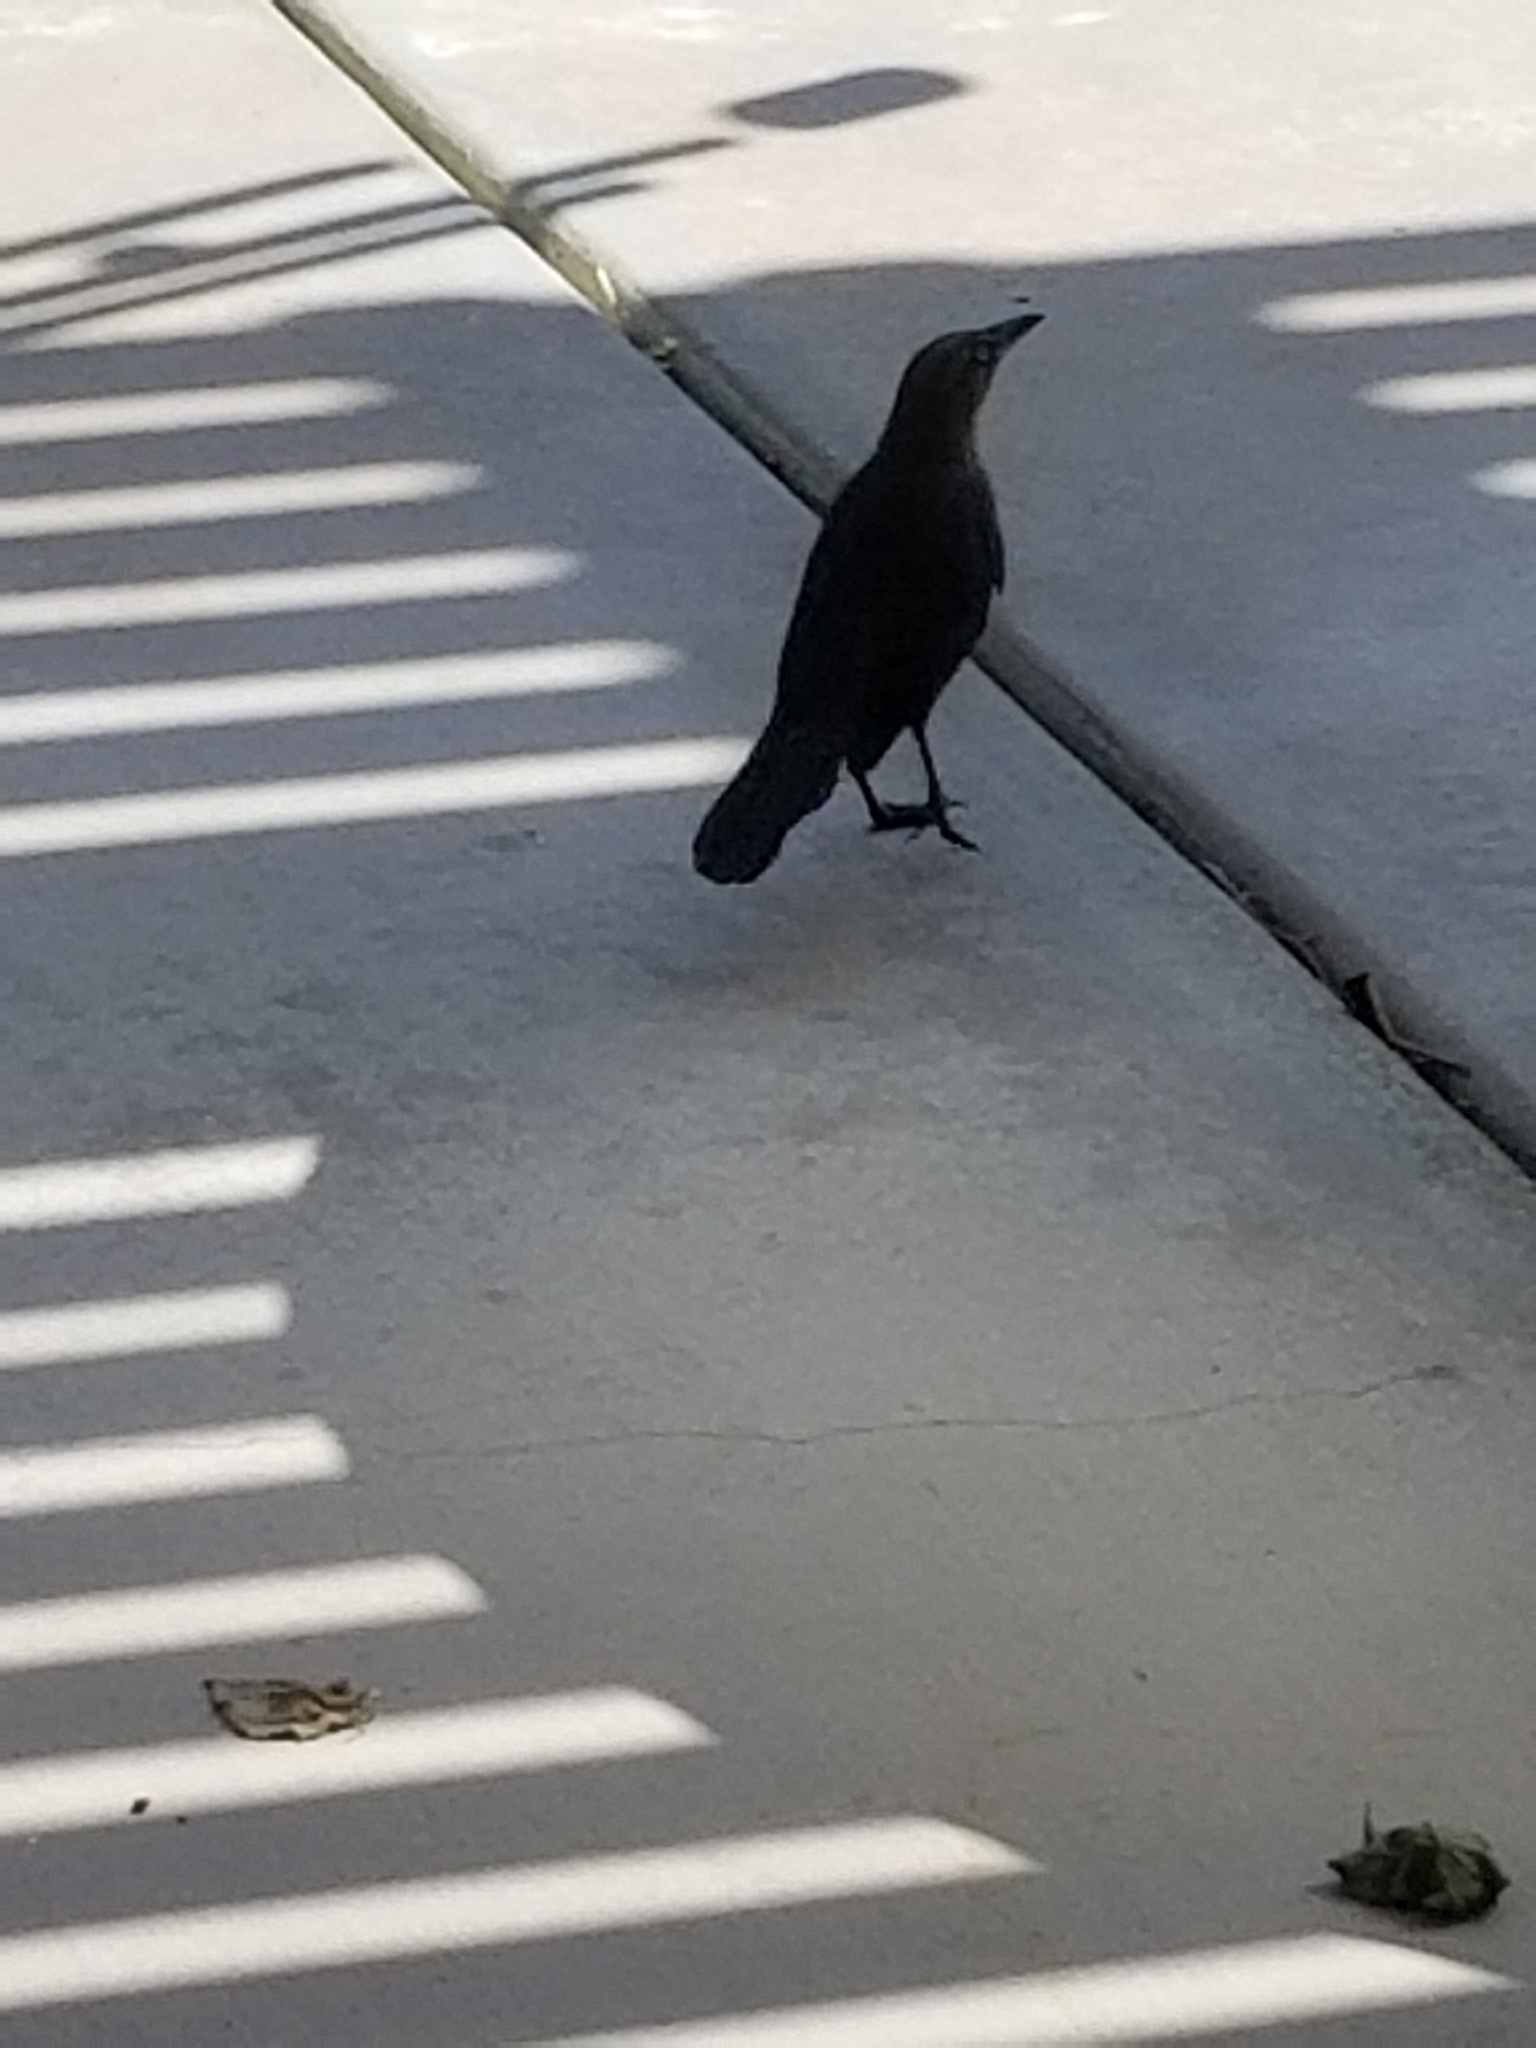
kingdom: Animalia
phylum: Chordata
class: Aves
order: Passeriformes
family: Icteridae
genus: Euphagus
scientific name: Euphagus cyanocephalus
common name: Brewer's blackbird
